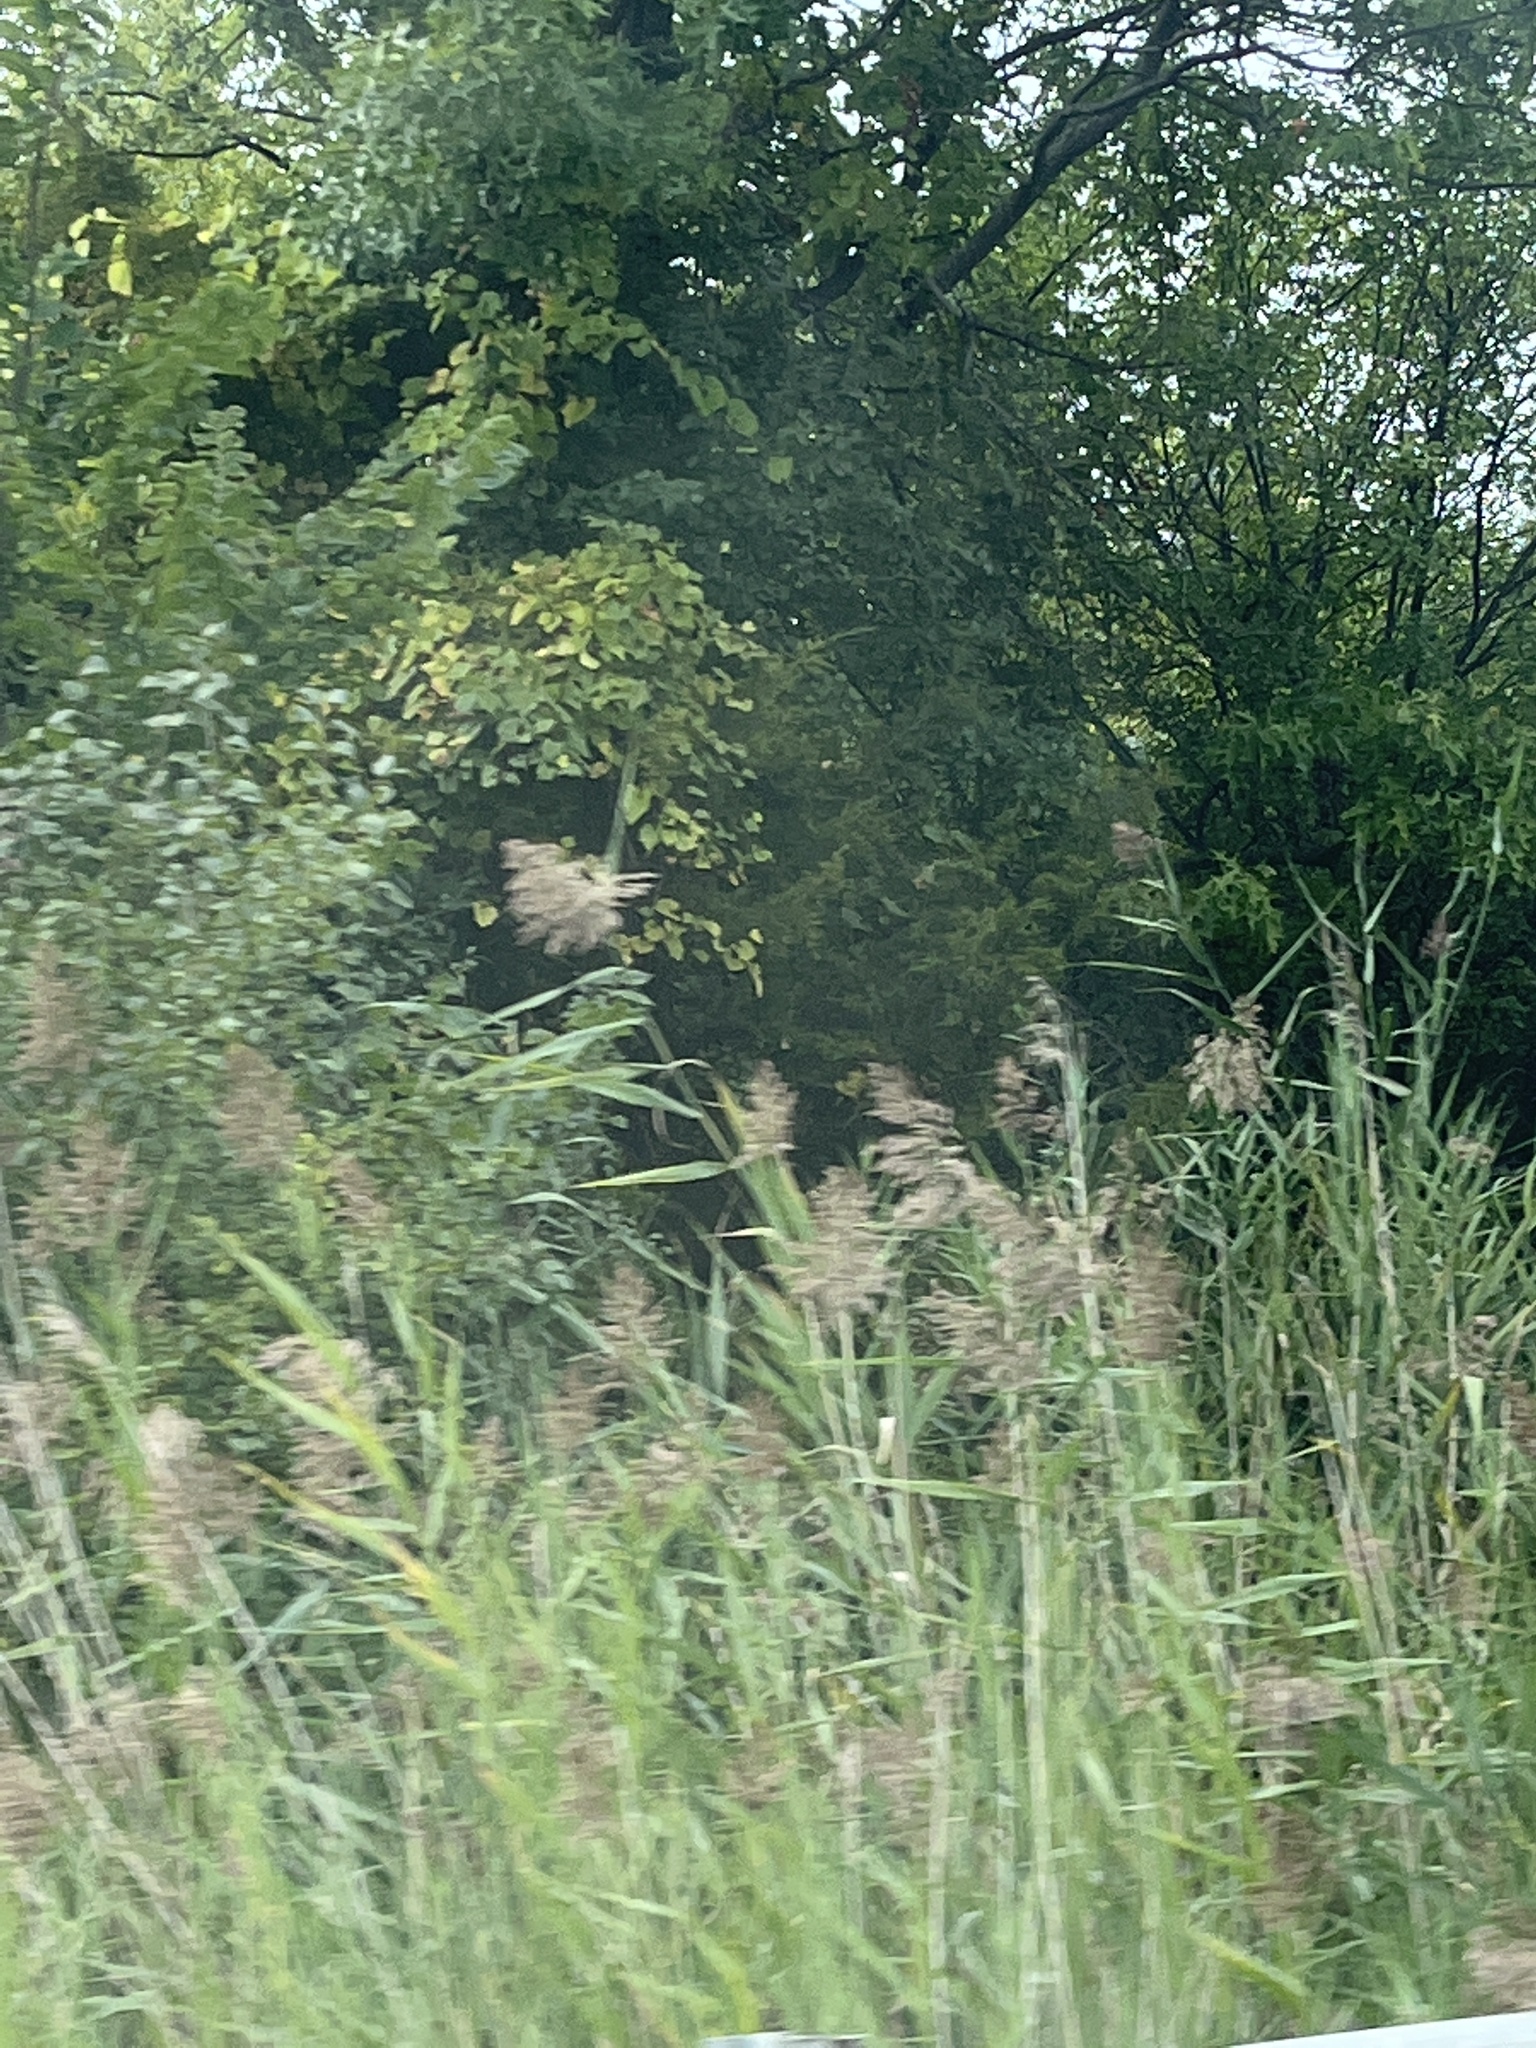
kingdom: Plantae
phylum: Tracheophyta
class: Liliopsida
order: Poales
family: Poaceae
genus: Phragmites
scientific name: Phragmites australis
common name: Common reed
